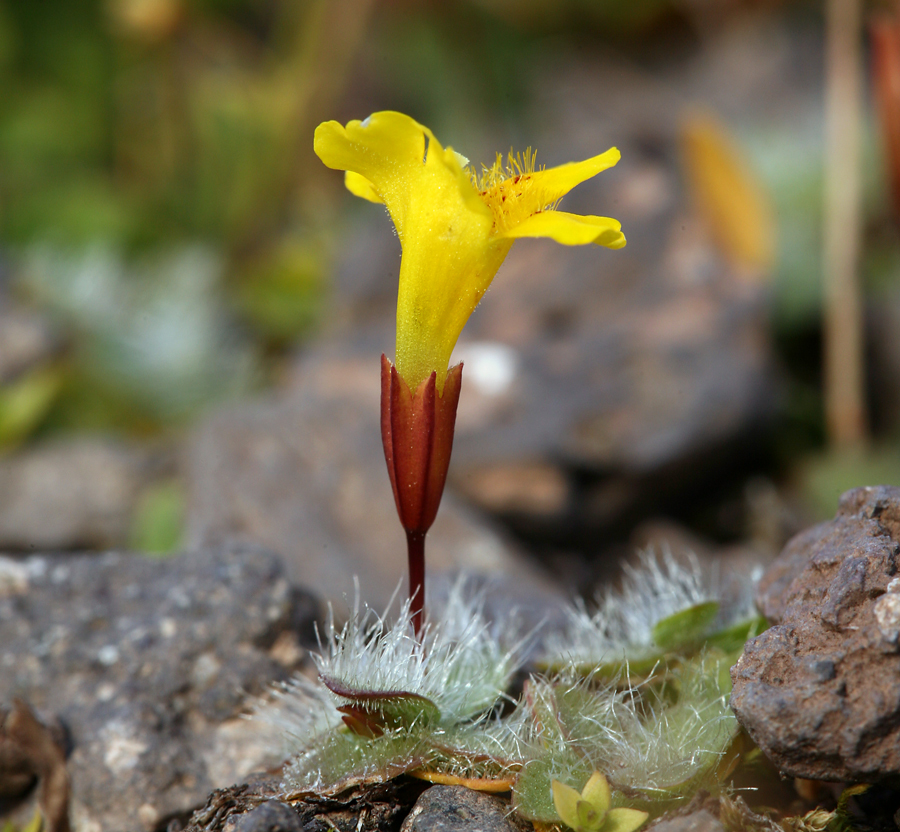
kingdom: Plantae
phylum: Tracheophyta
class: Magnoliopsida
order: Lamiales
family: Phrymaceae
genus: Erythranthe
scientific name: Erythranthe primuloides
